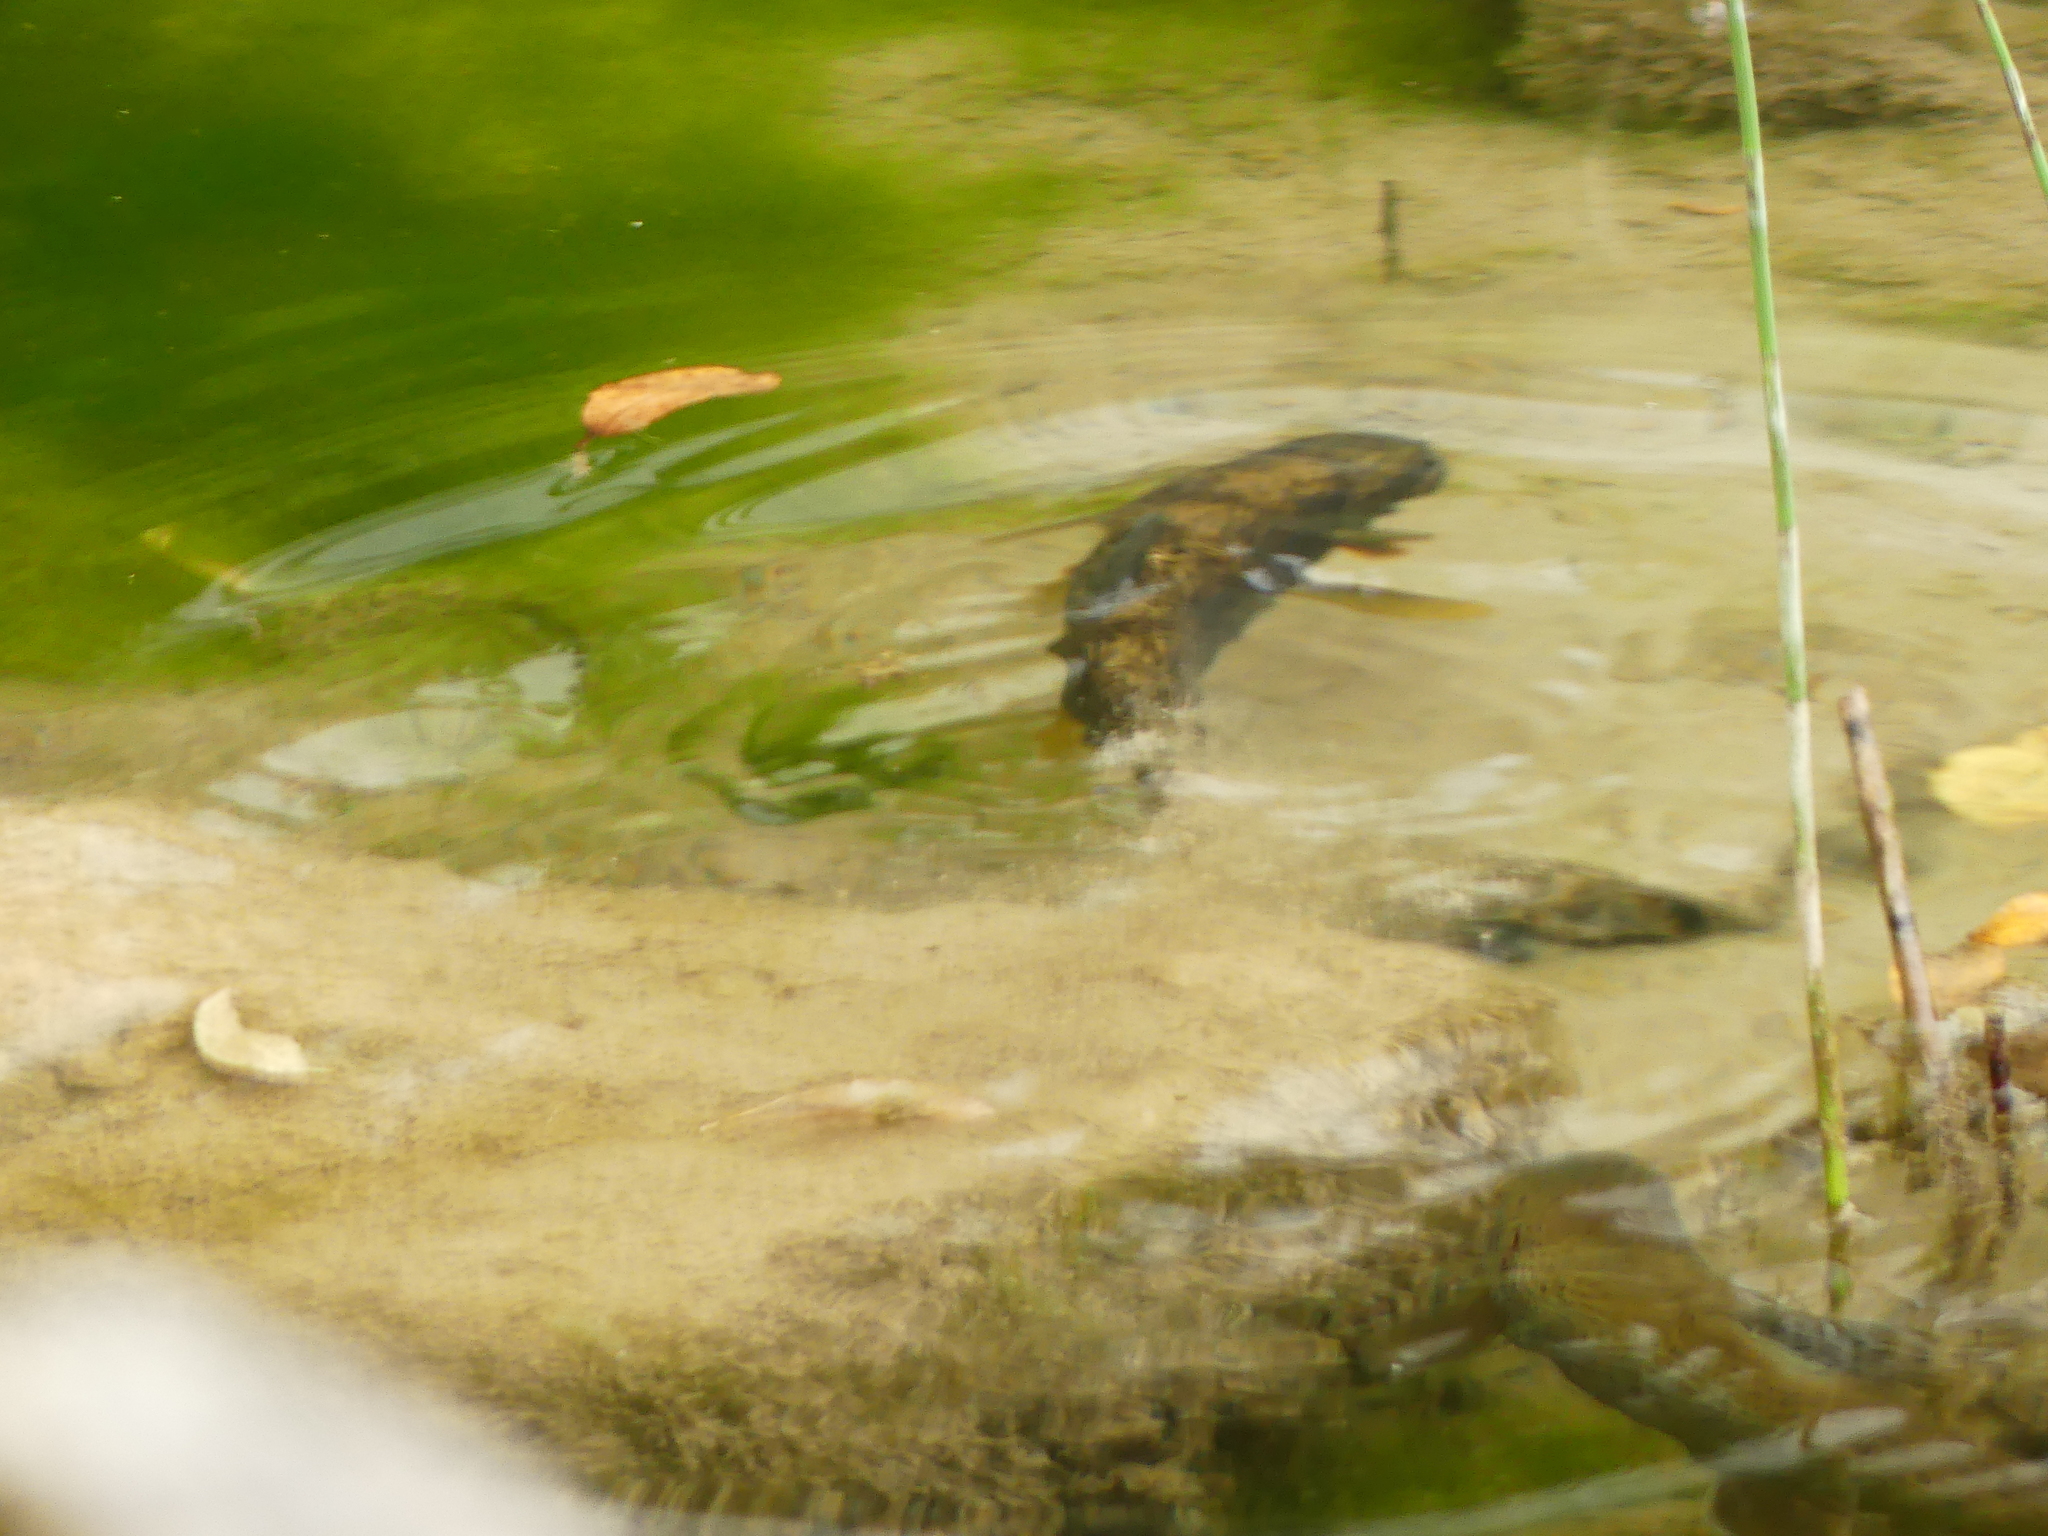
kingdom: Animalia
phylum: Chordata
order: Cypriniformes
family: Cyprinidae
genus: Cyprinus
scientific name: Cyprinus carpio
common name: Common carp
